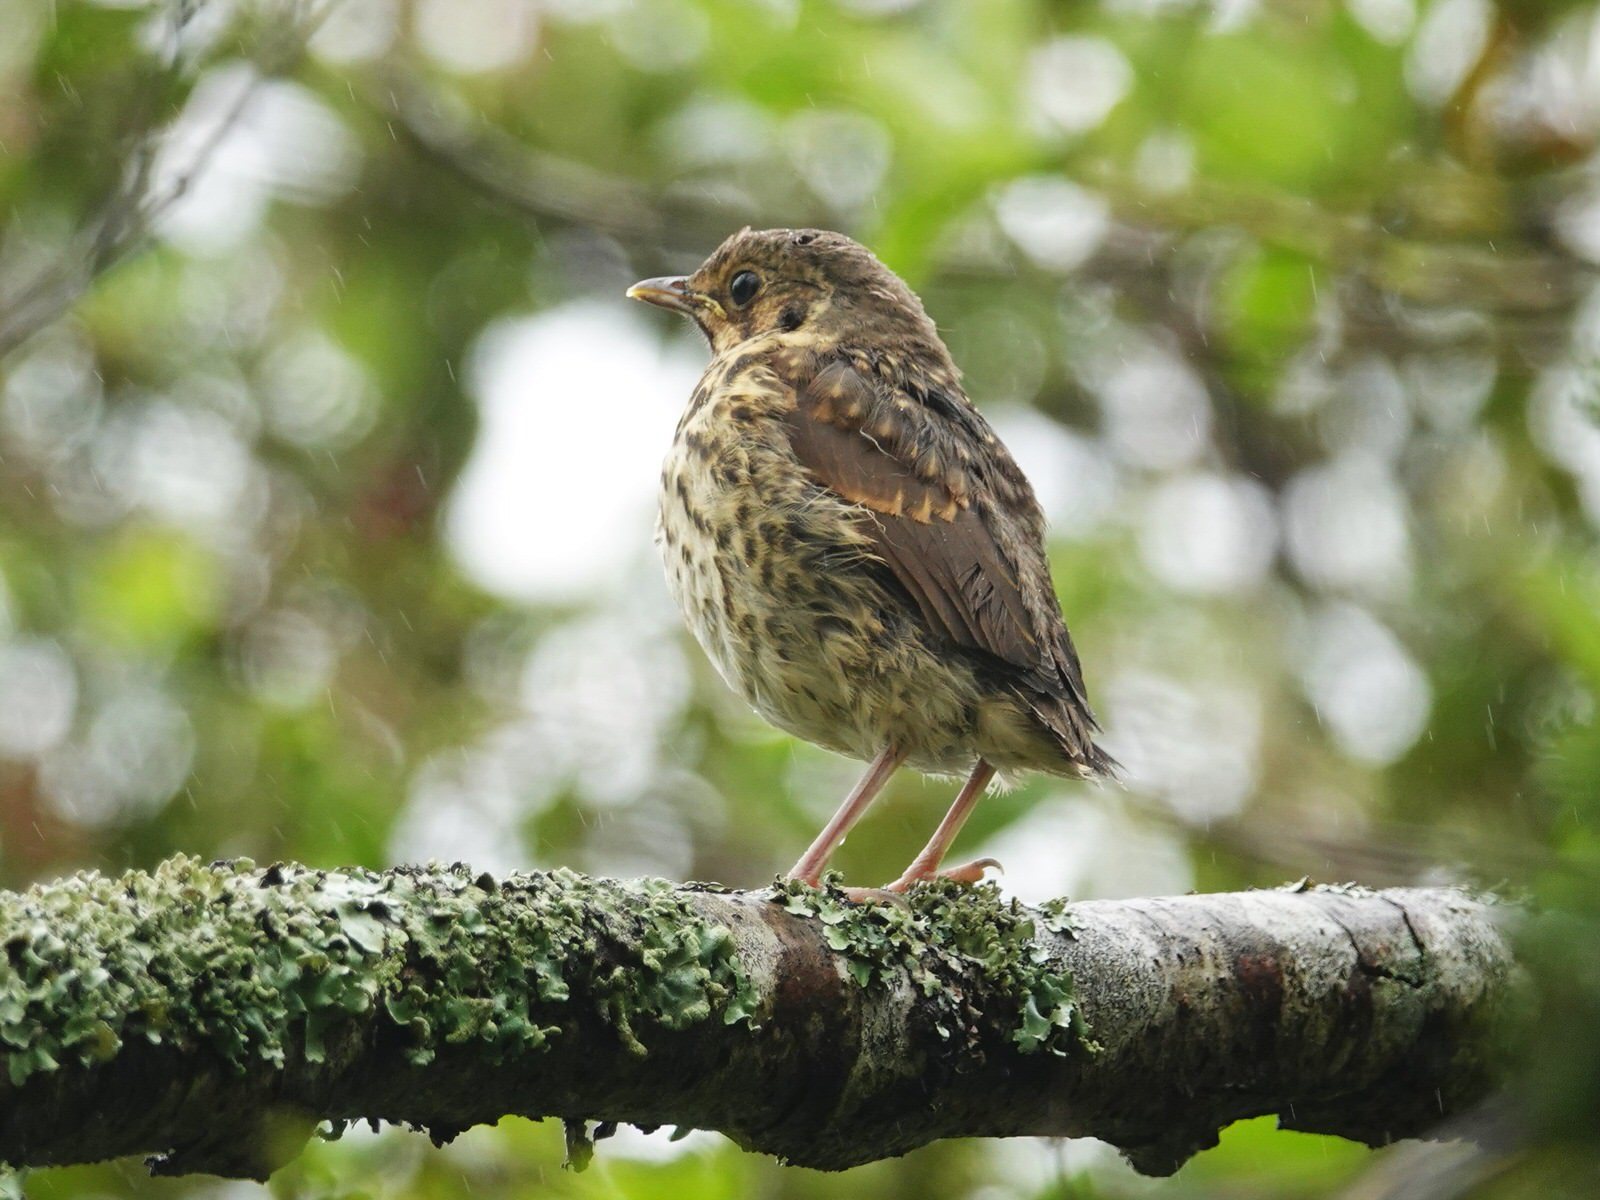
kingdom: Animalia
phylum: Chordata
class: Aves
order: Passeriformes
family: Turdidae
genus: Turdus
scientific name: Turdus philomelos
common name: Song thrush
